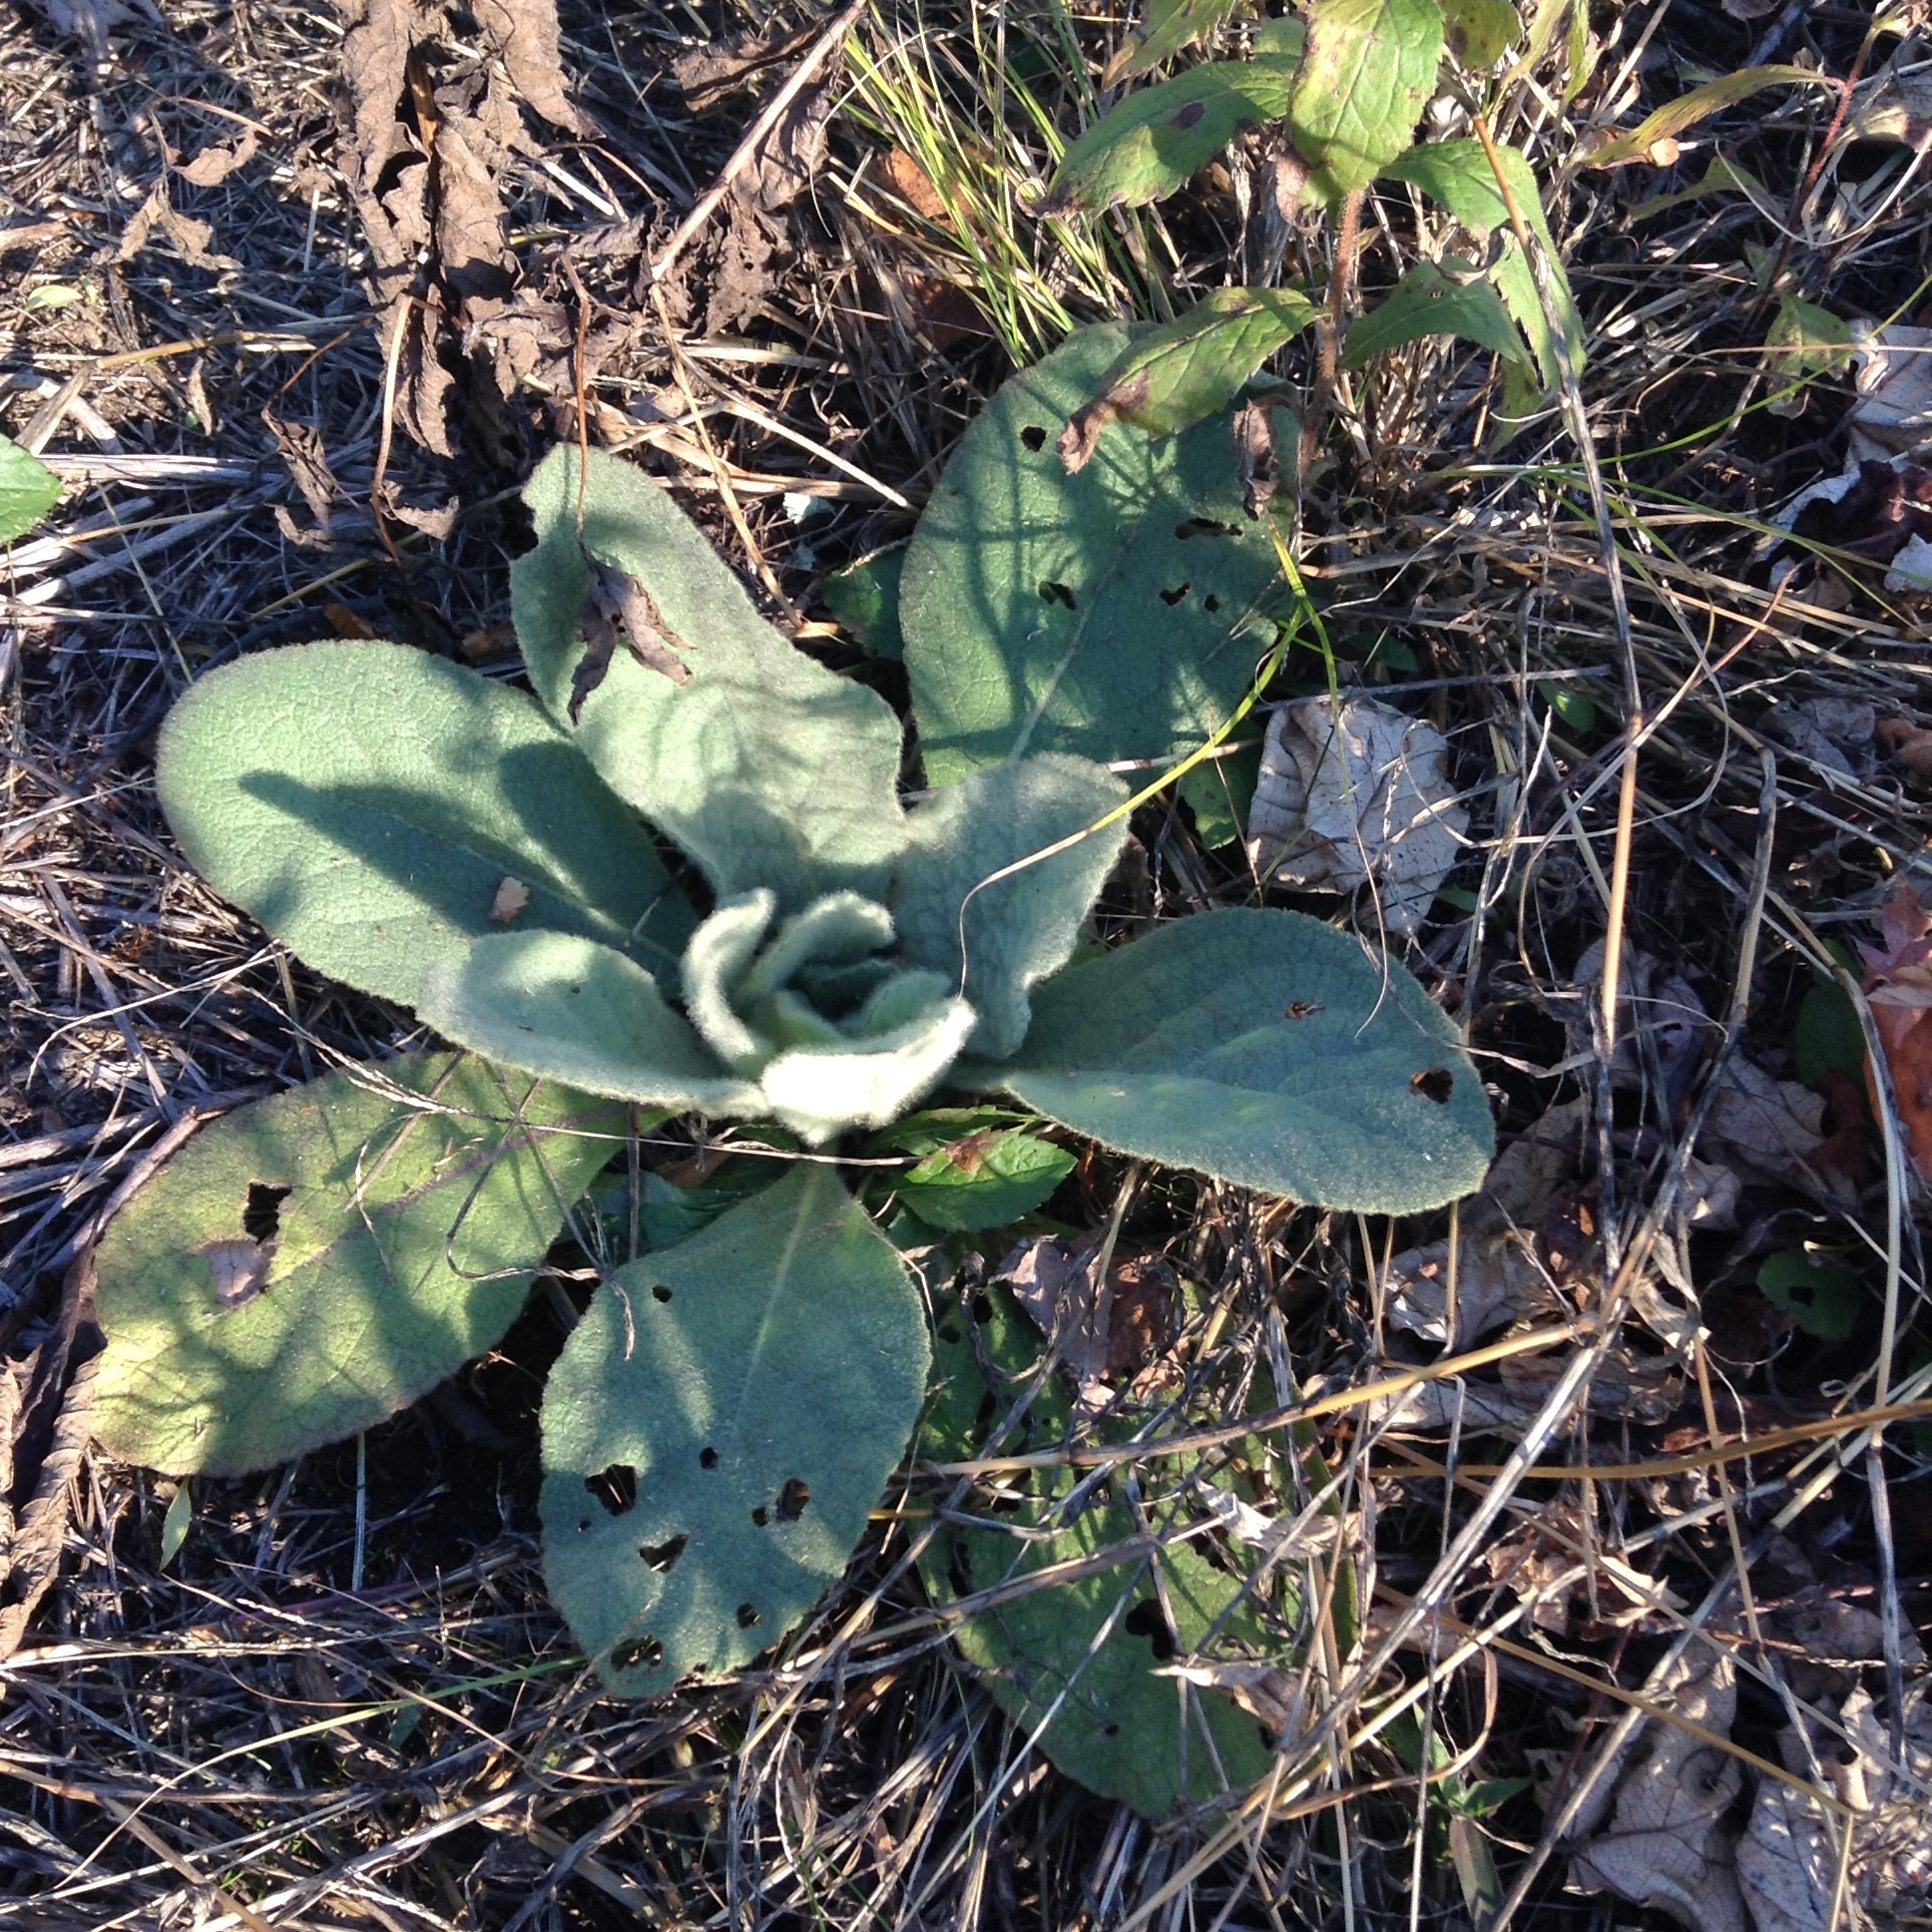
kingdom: Plantae
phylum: Tracheophyta
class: Magnoliopsida
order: Lamiales
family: Scrophulariaceae
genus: Verbascum
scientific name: Verbascum thapsus
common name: Common mullein
